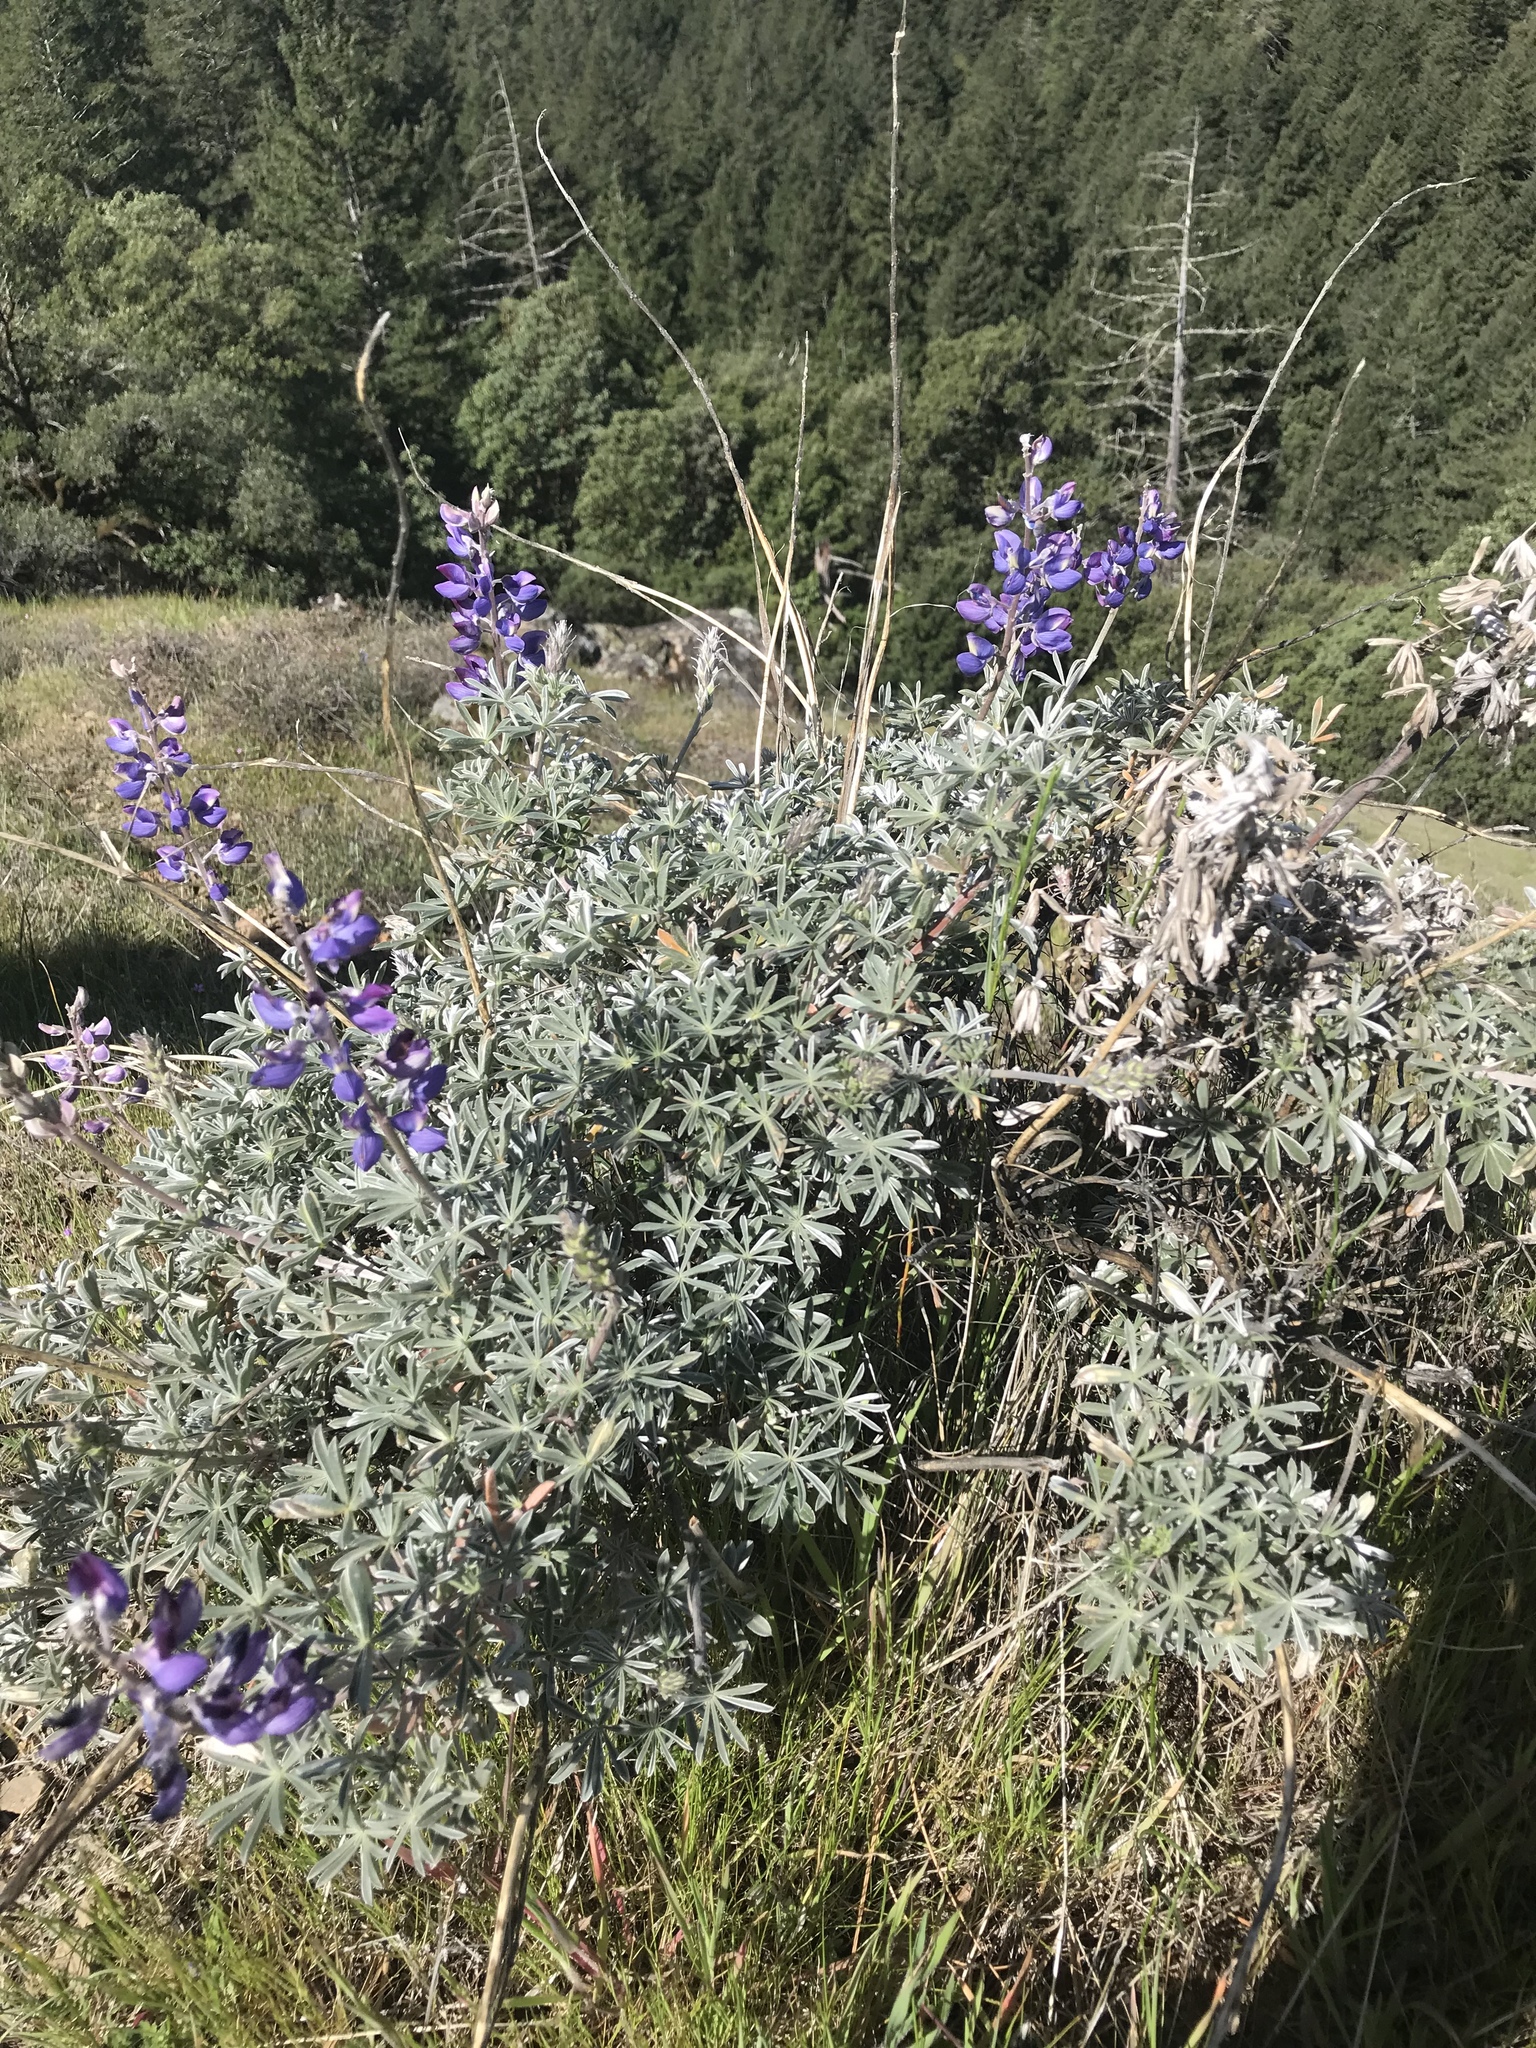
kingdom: Plantae
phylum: Tracheophyta
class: Magnoliopsida
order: Fabales
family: Fabaceae
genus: Lupinus
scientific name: Lupinus albifrons
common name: Foothill lupine
